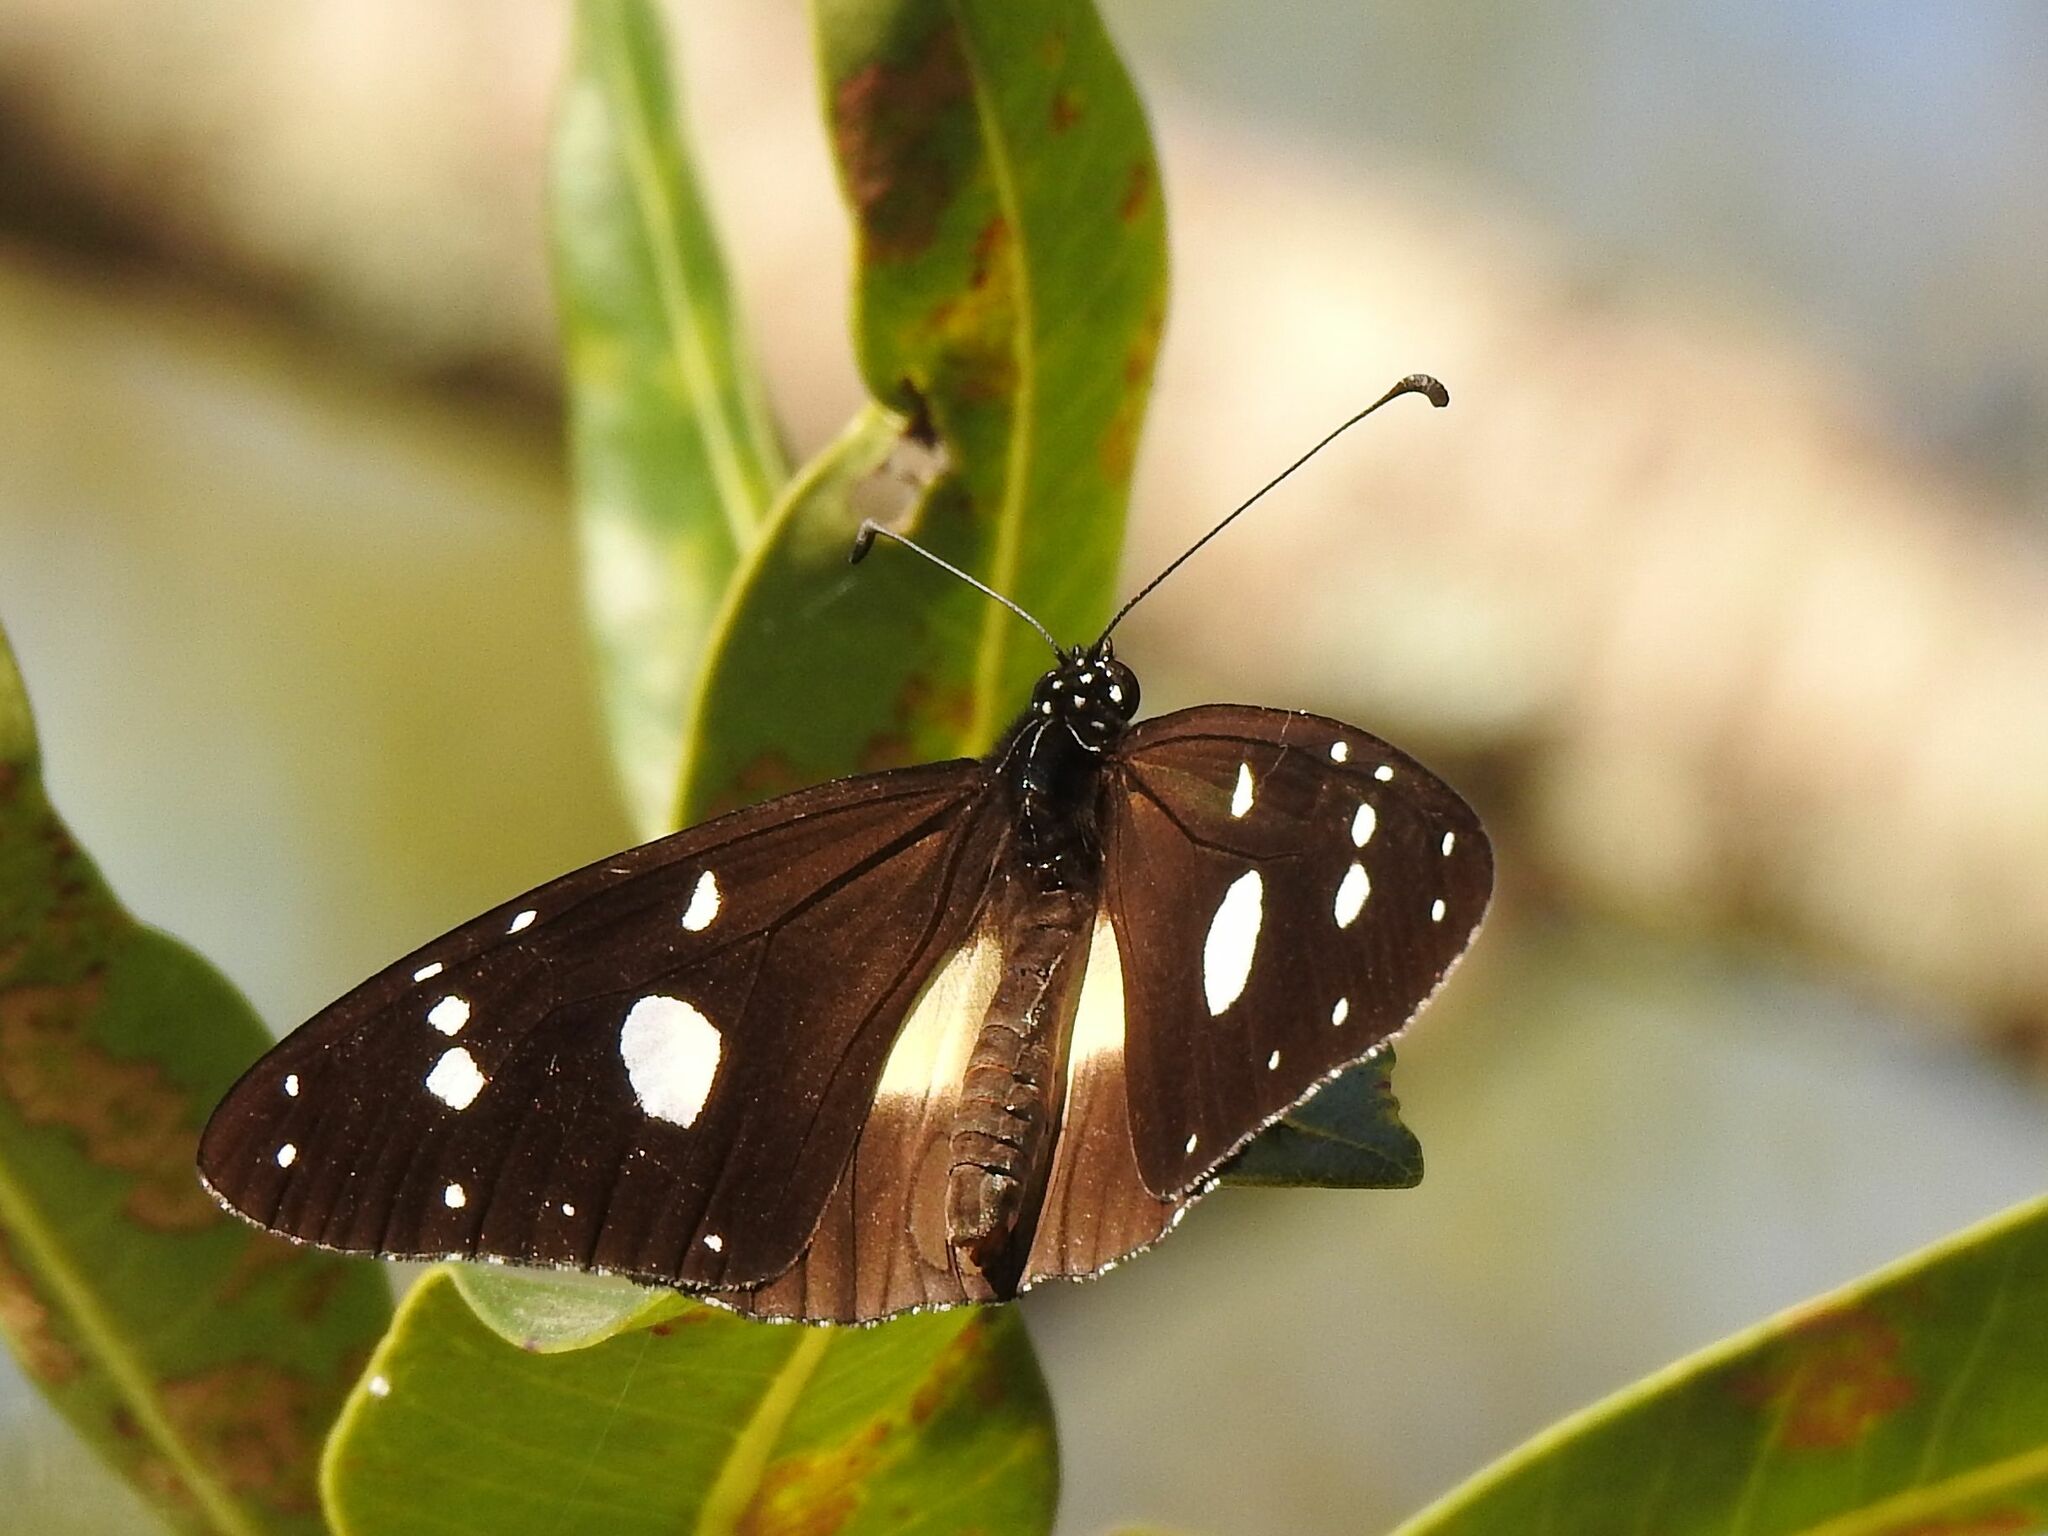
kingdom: Animalia
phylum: Arthropoda
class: Insecta
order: Lepidoptera
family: Nymphalidae
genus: Amauris
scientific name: Amauris albimaculata
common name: Layman
